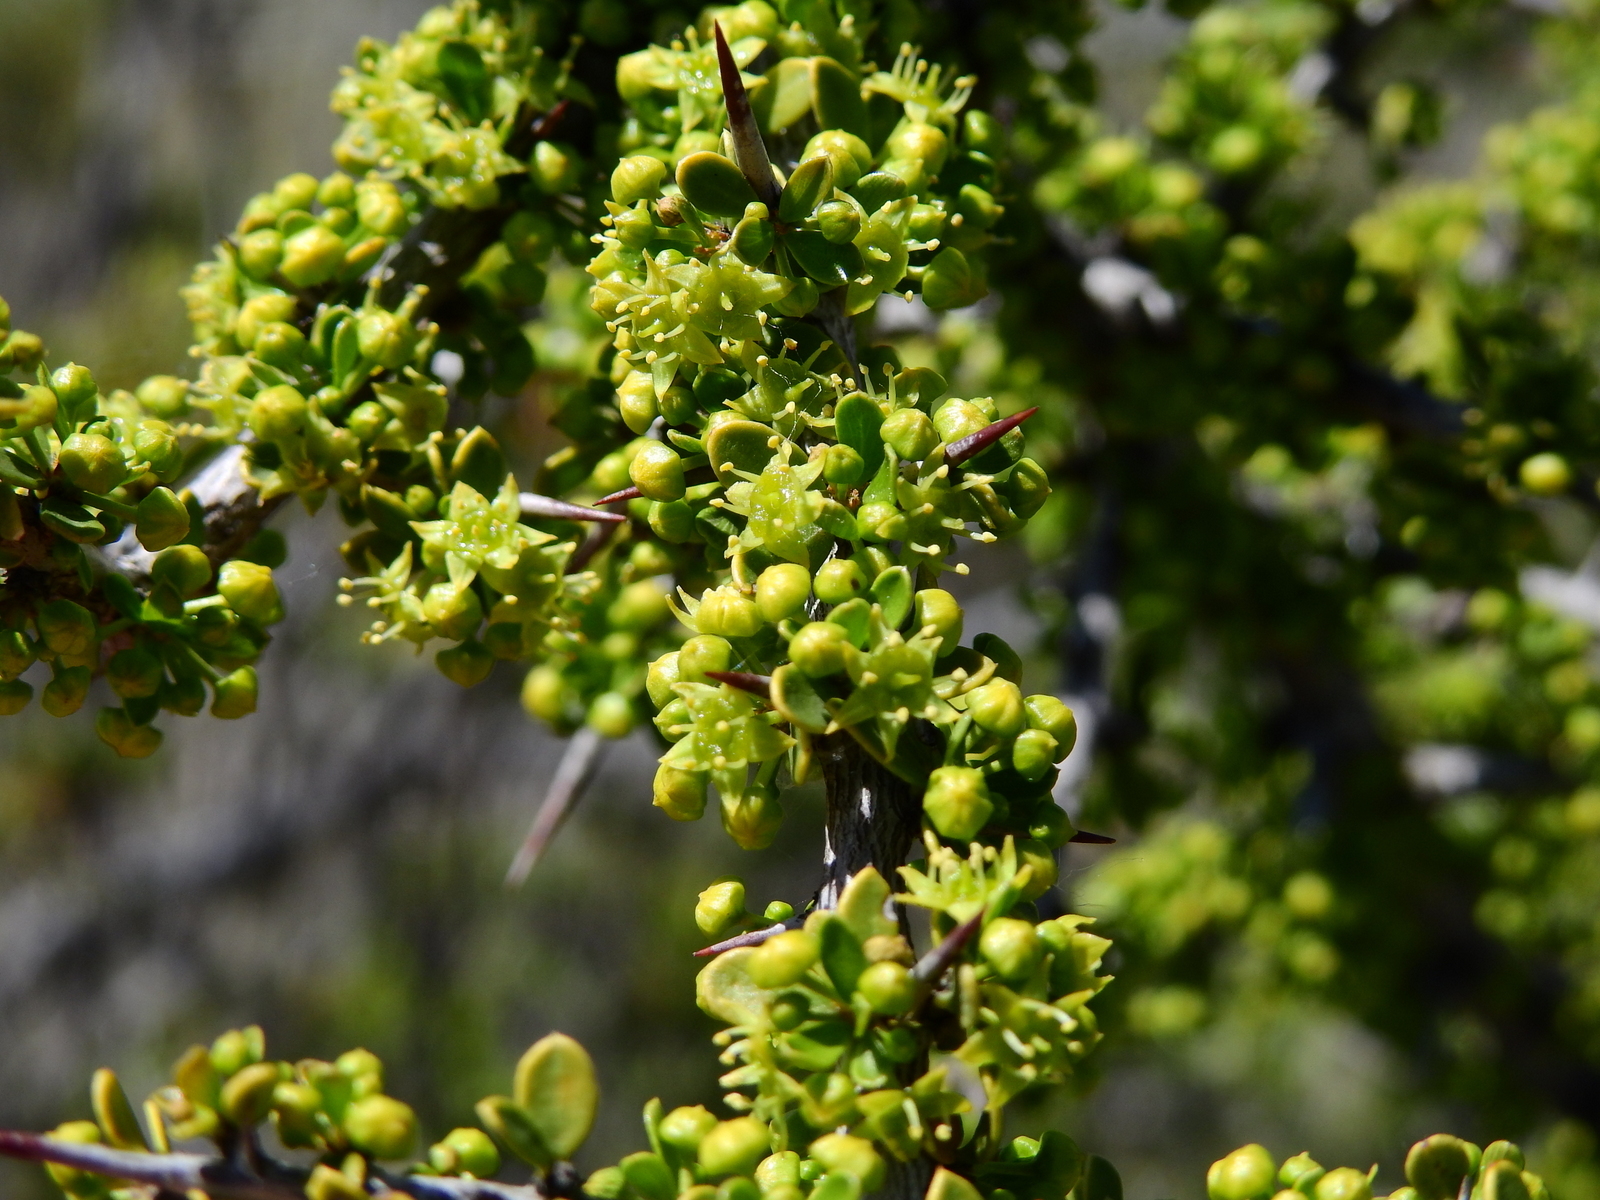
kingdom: Plantae
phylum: Tracheophyta
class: Magnoliopsida
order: Rosales
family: Rhamnaceae
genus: Condalia
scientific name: Condalia microphylla
